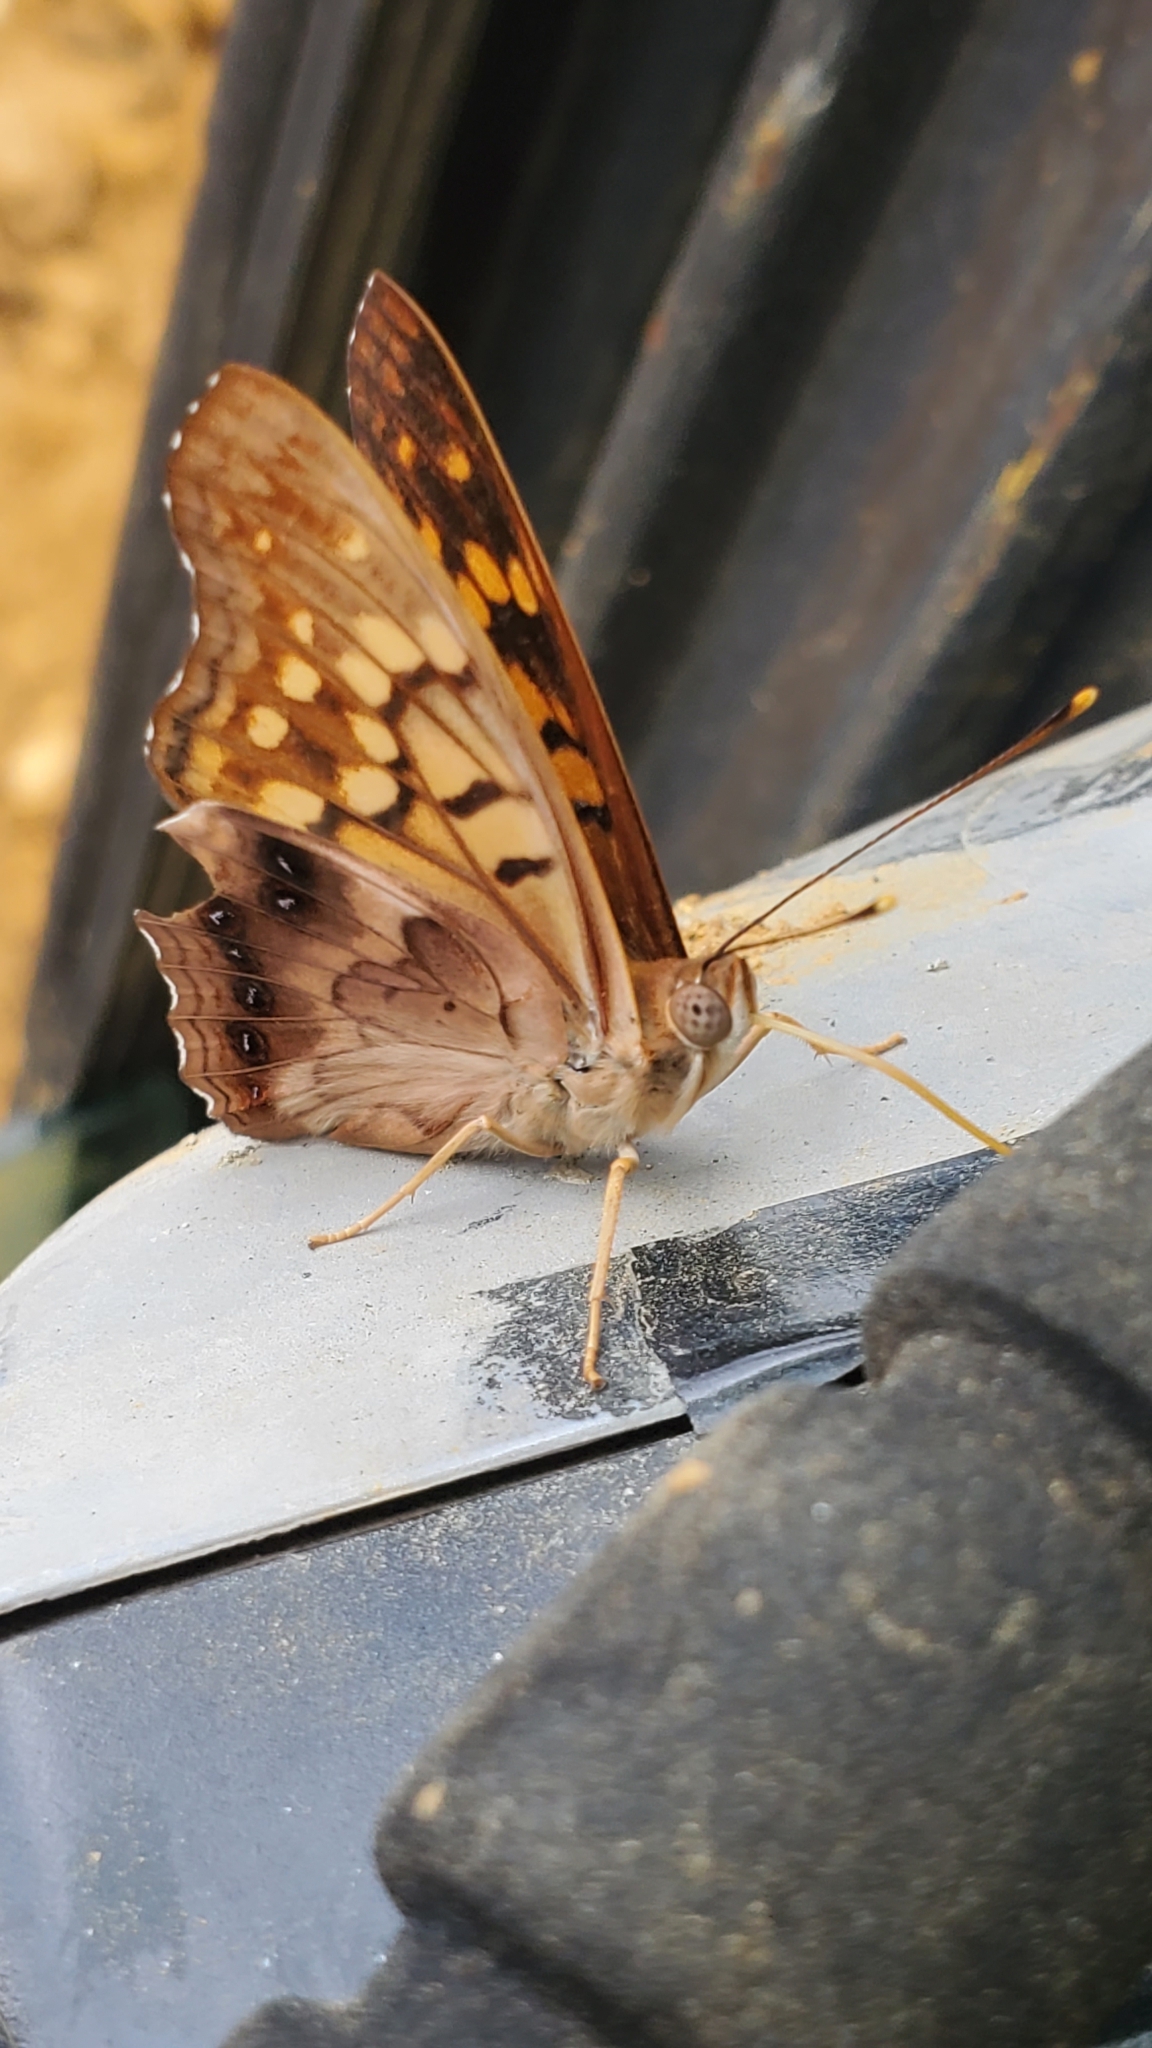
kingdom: Animalia
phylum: Arthropoda
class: Insecta
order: Lepidoptera
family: Nymphalidae
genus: Asterocampa
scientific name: Asterocampa clyton
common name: Tawny emperor
